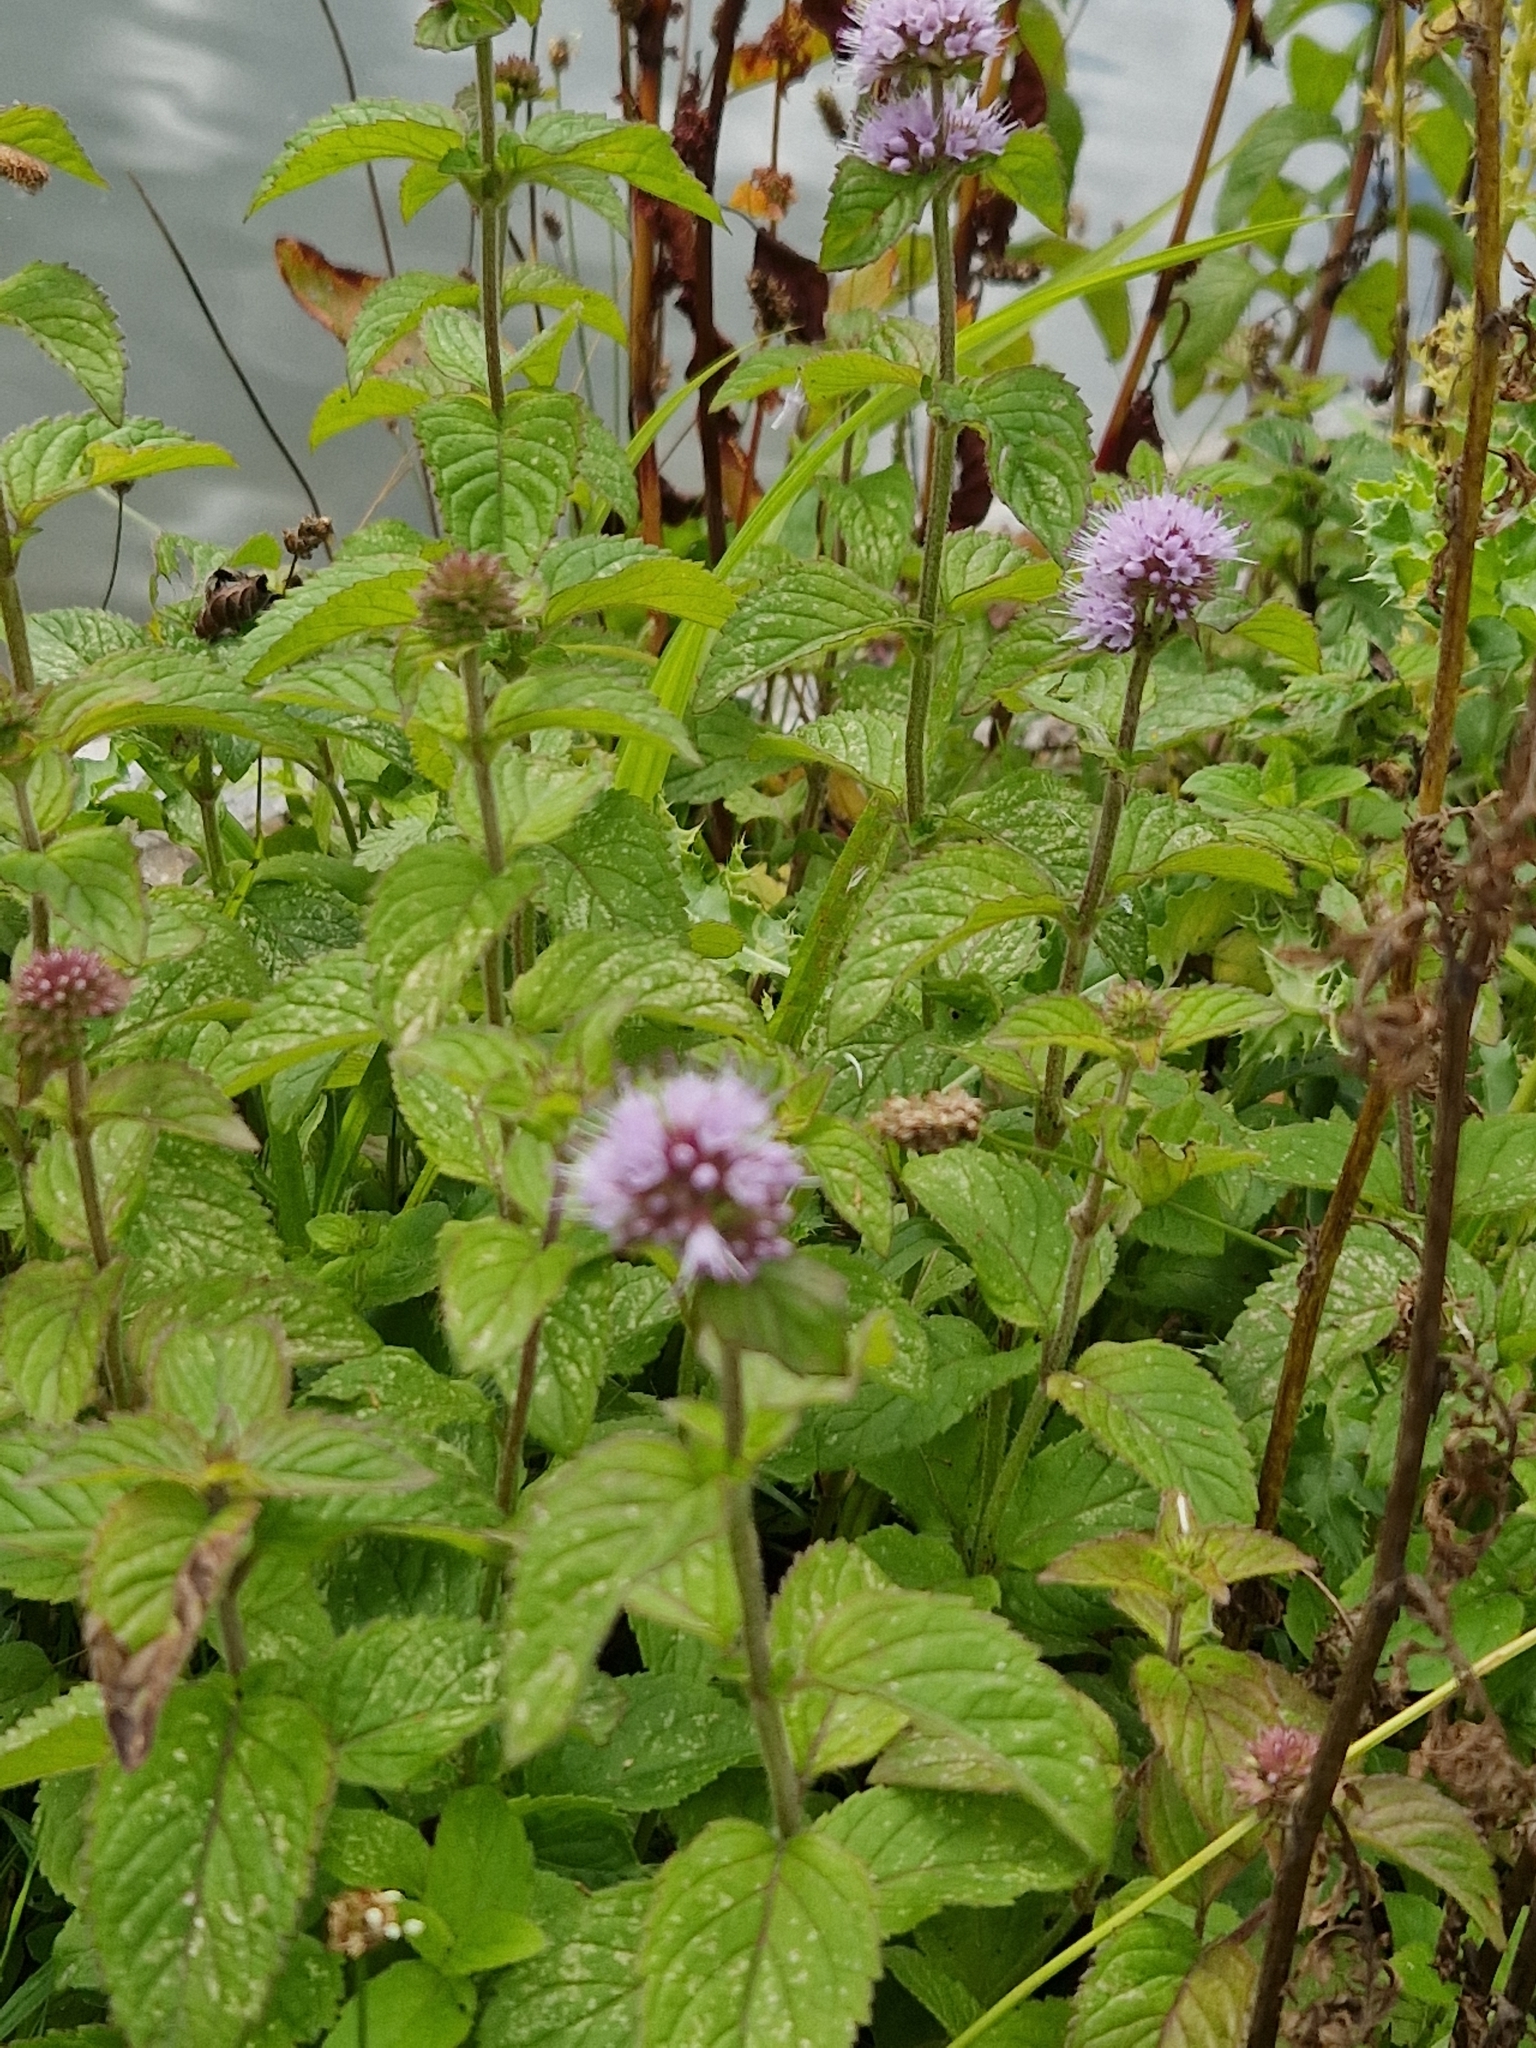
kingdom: Plantae
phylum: Tracheophyta
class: Magnoliopsida
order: Lamiales
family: Lamiaceae
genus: Mentha
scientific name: Mentha aquatica
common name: Water mint
